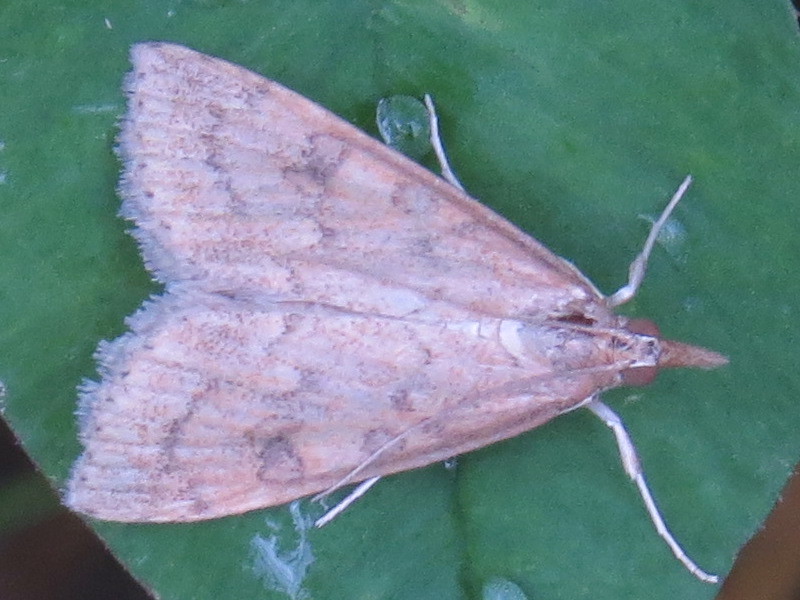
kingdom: Animalia
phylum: Arthropoda
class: Insecta
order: Lepidoptera
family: Crambidae
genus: Udea
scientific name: Udea rubigalis
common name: Celery leaftier moth
